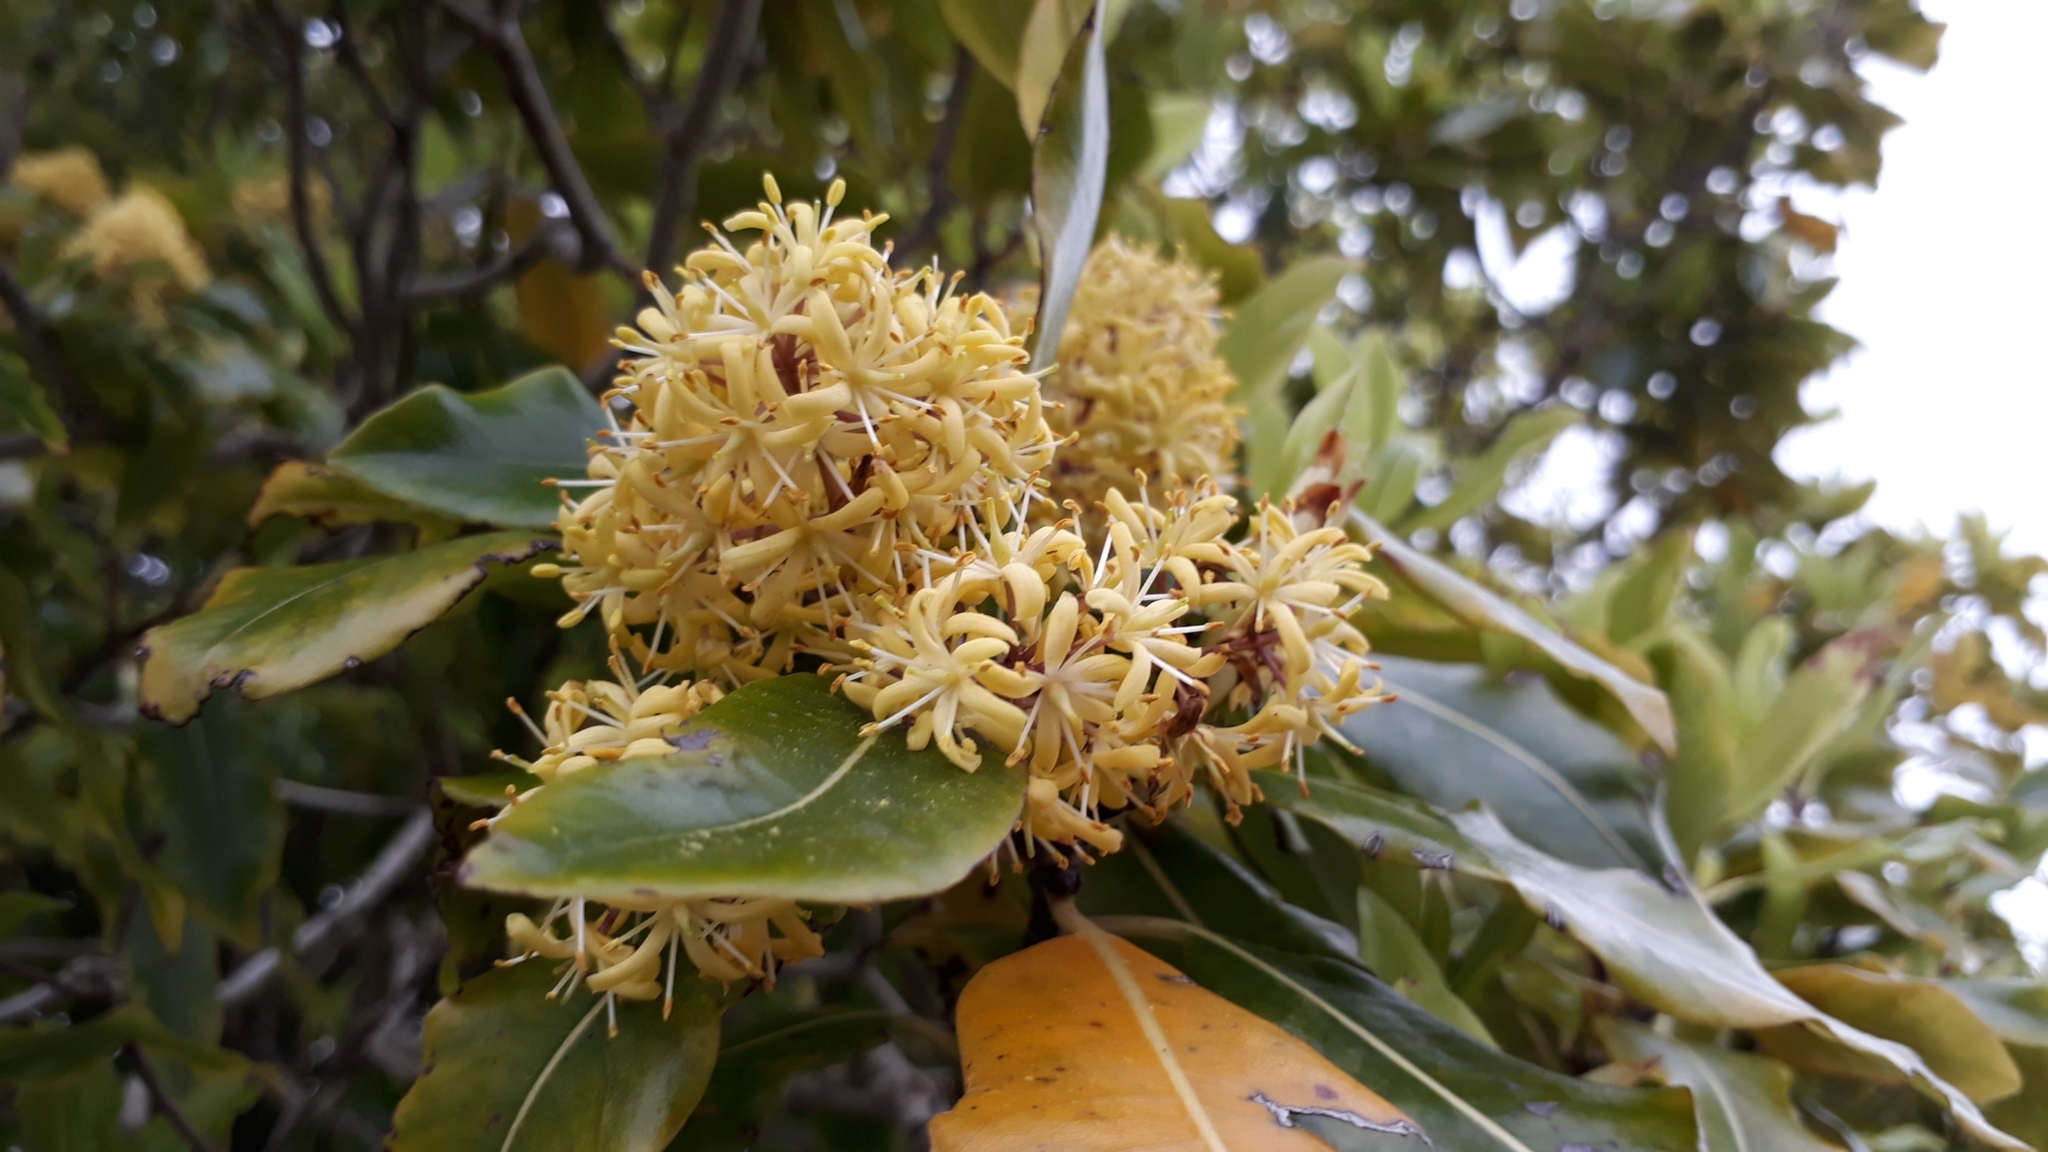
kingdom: Plantae
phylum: Tracheophyta
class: Magnoliopsida
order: Apiales
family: Pittosporaceae
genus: Pittosporum
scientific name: Pittosporum eugenioides
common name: Lemonwood
